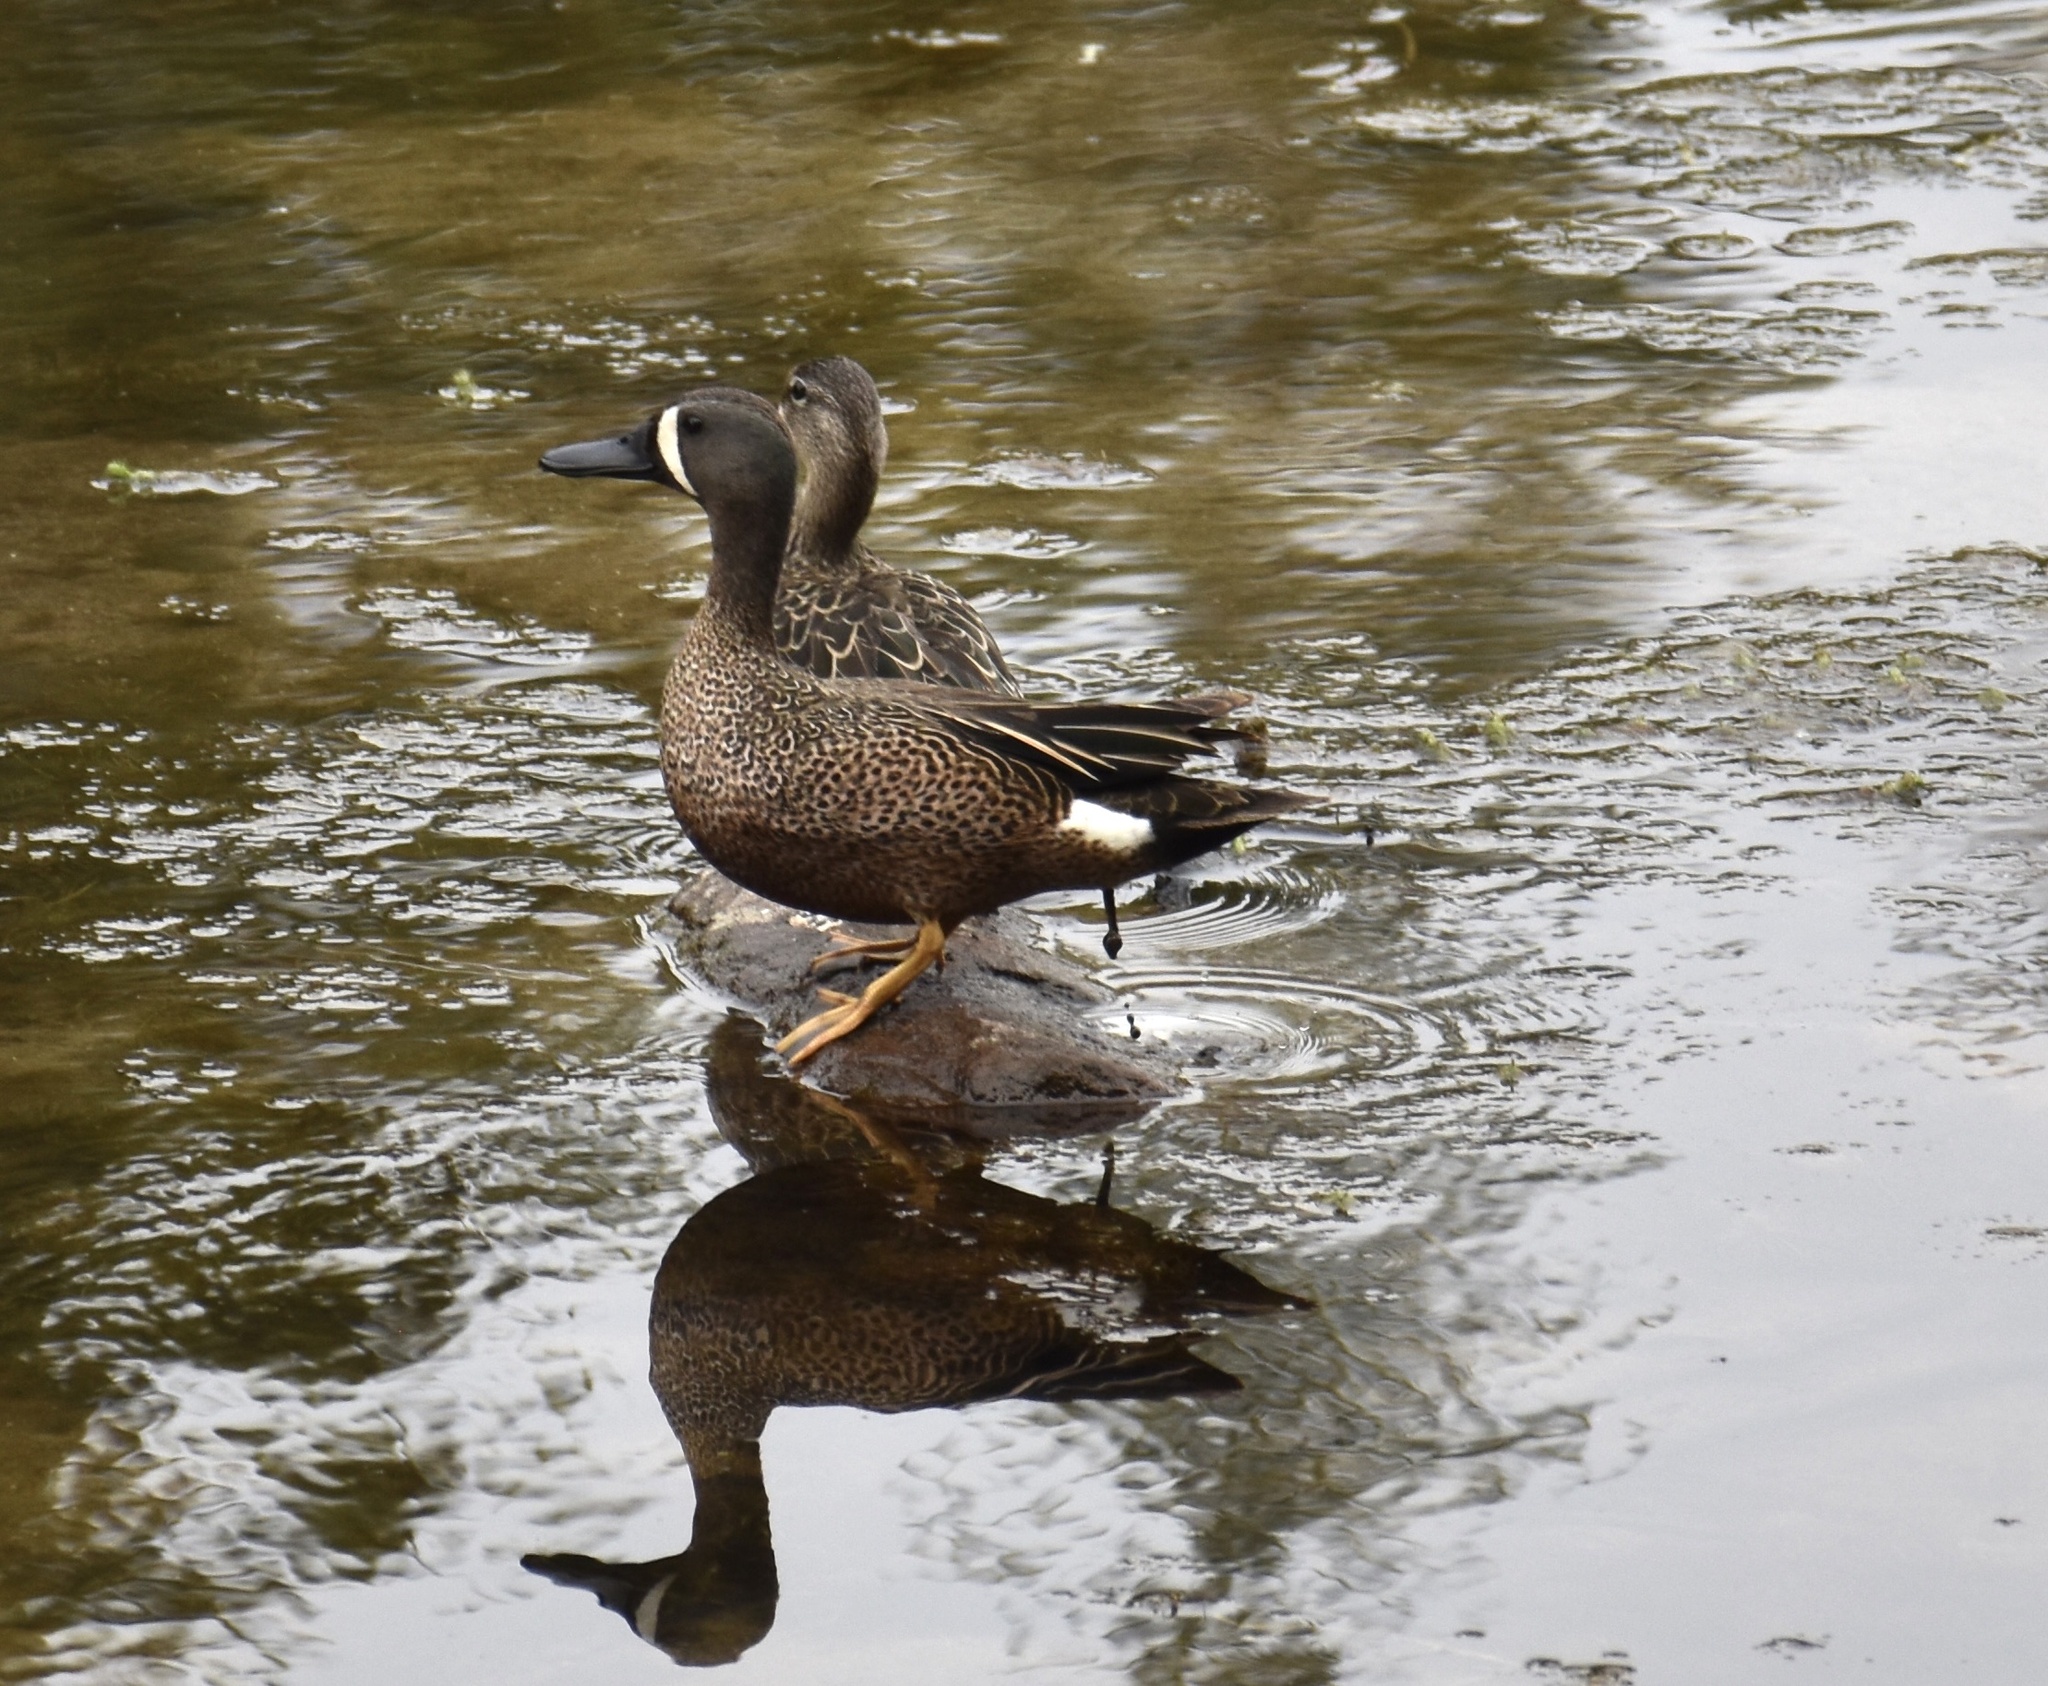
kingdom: Animalia
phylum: Chordata
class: Aves
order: Anseriformes
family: Anatidae
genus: Spatula
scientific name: Spatula discors
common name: Blue-winged teal
